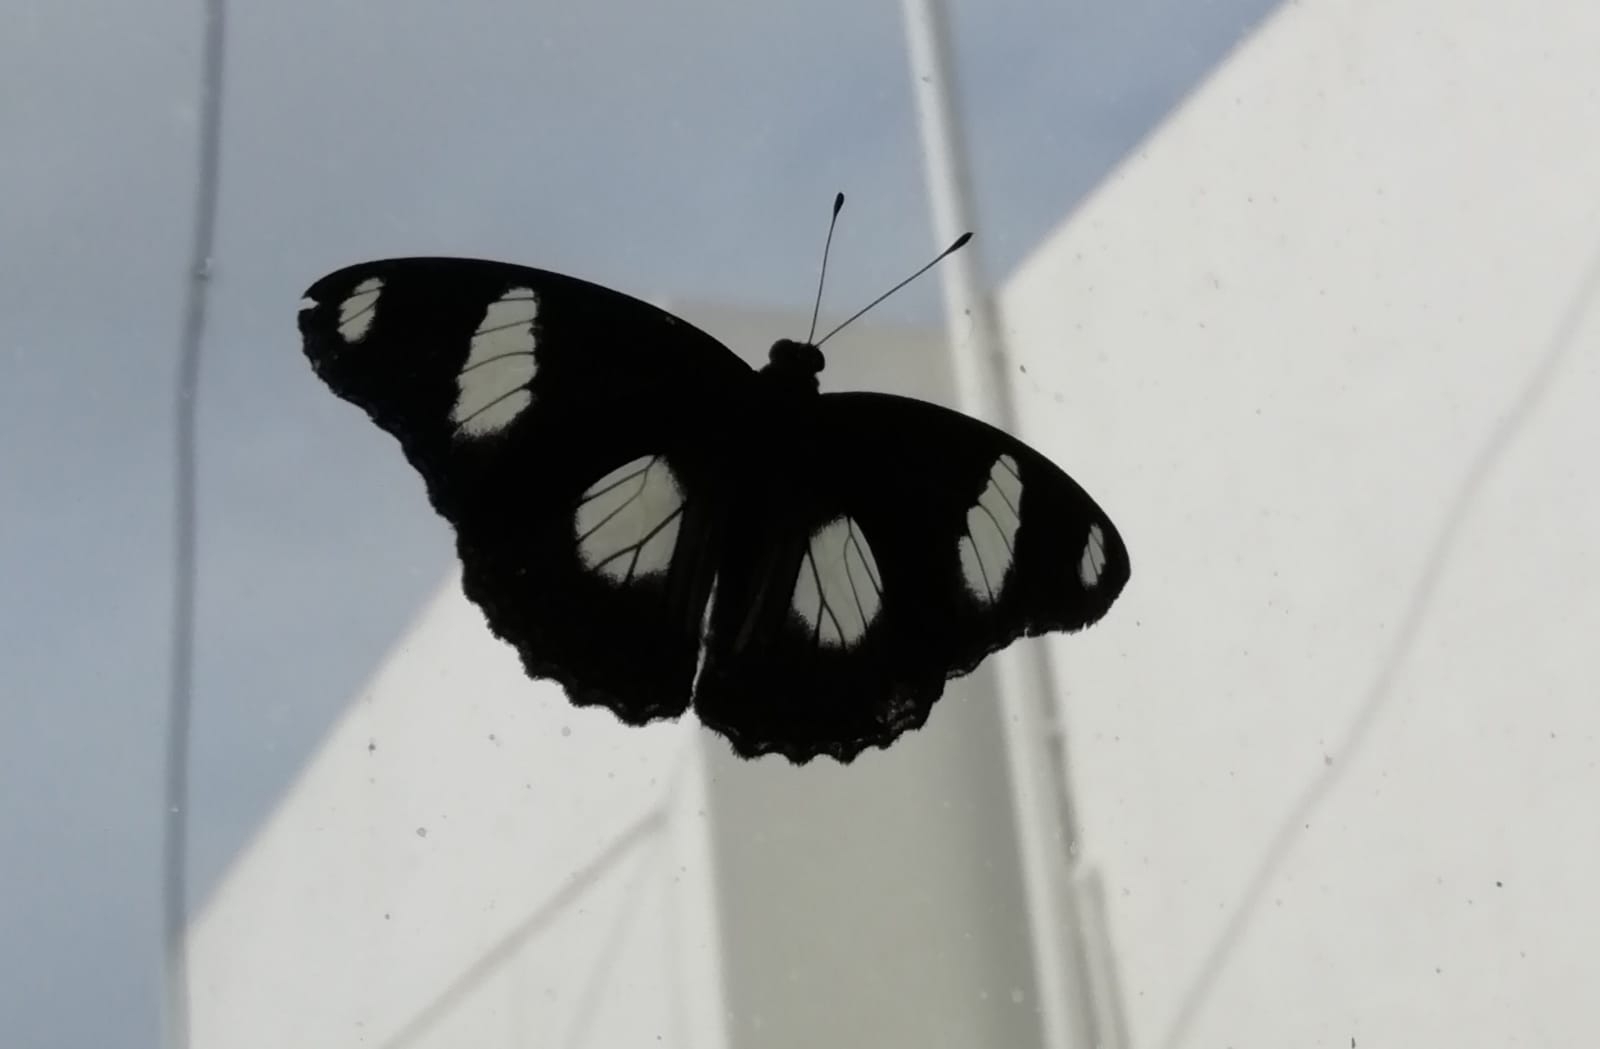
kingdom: Animalia
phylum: Arthropoda
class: Insecta
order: Lepidoptera
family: Nymphalidae
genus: Hypolimnas
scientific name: Hypolimnas misippus
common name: False plain tiger
